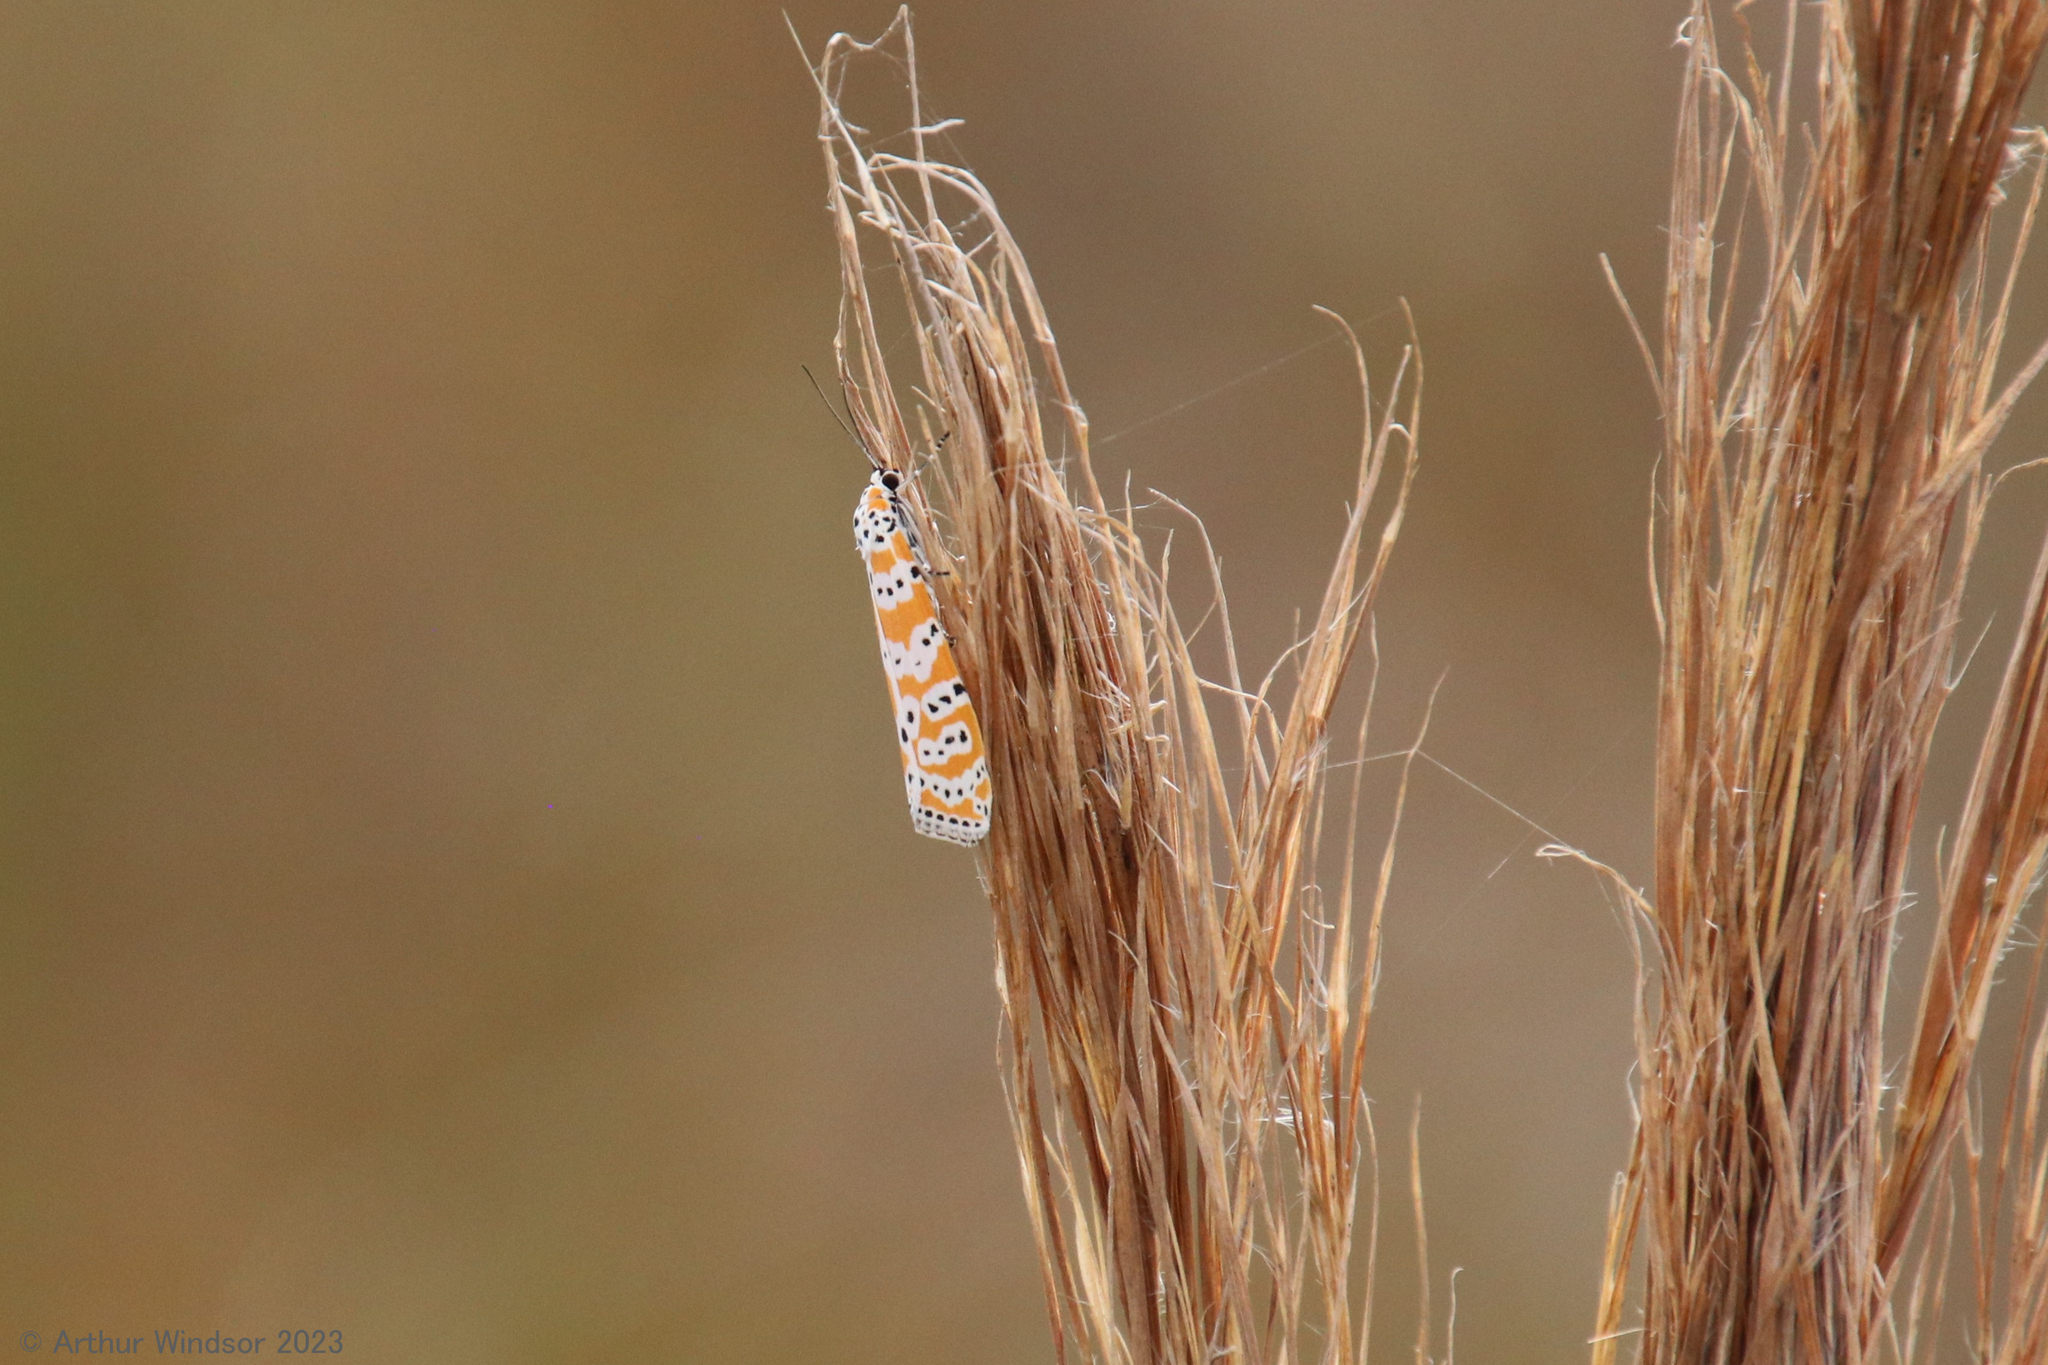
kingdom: Animalia
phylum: Arthropoda
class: Insecta
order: Lepidoptera
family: Erebidae
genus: Utetheisa
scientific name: Utetheisa ornatrix
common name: Beautiful utetheisa
